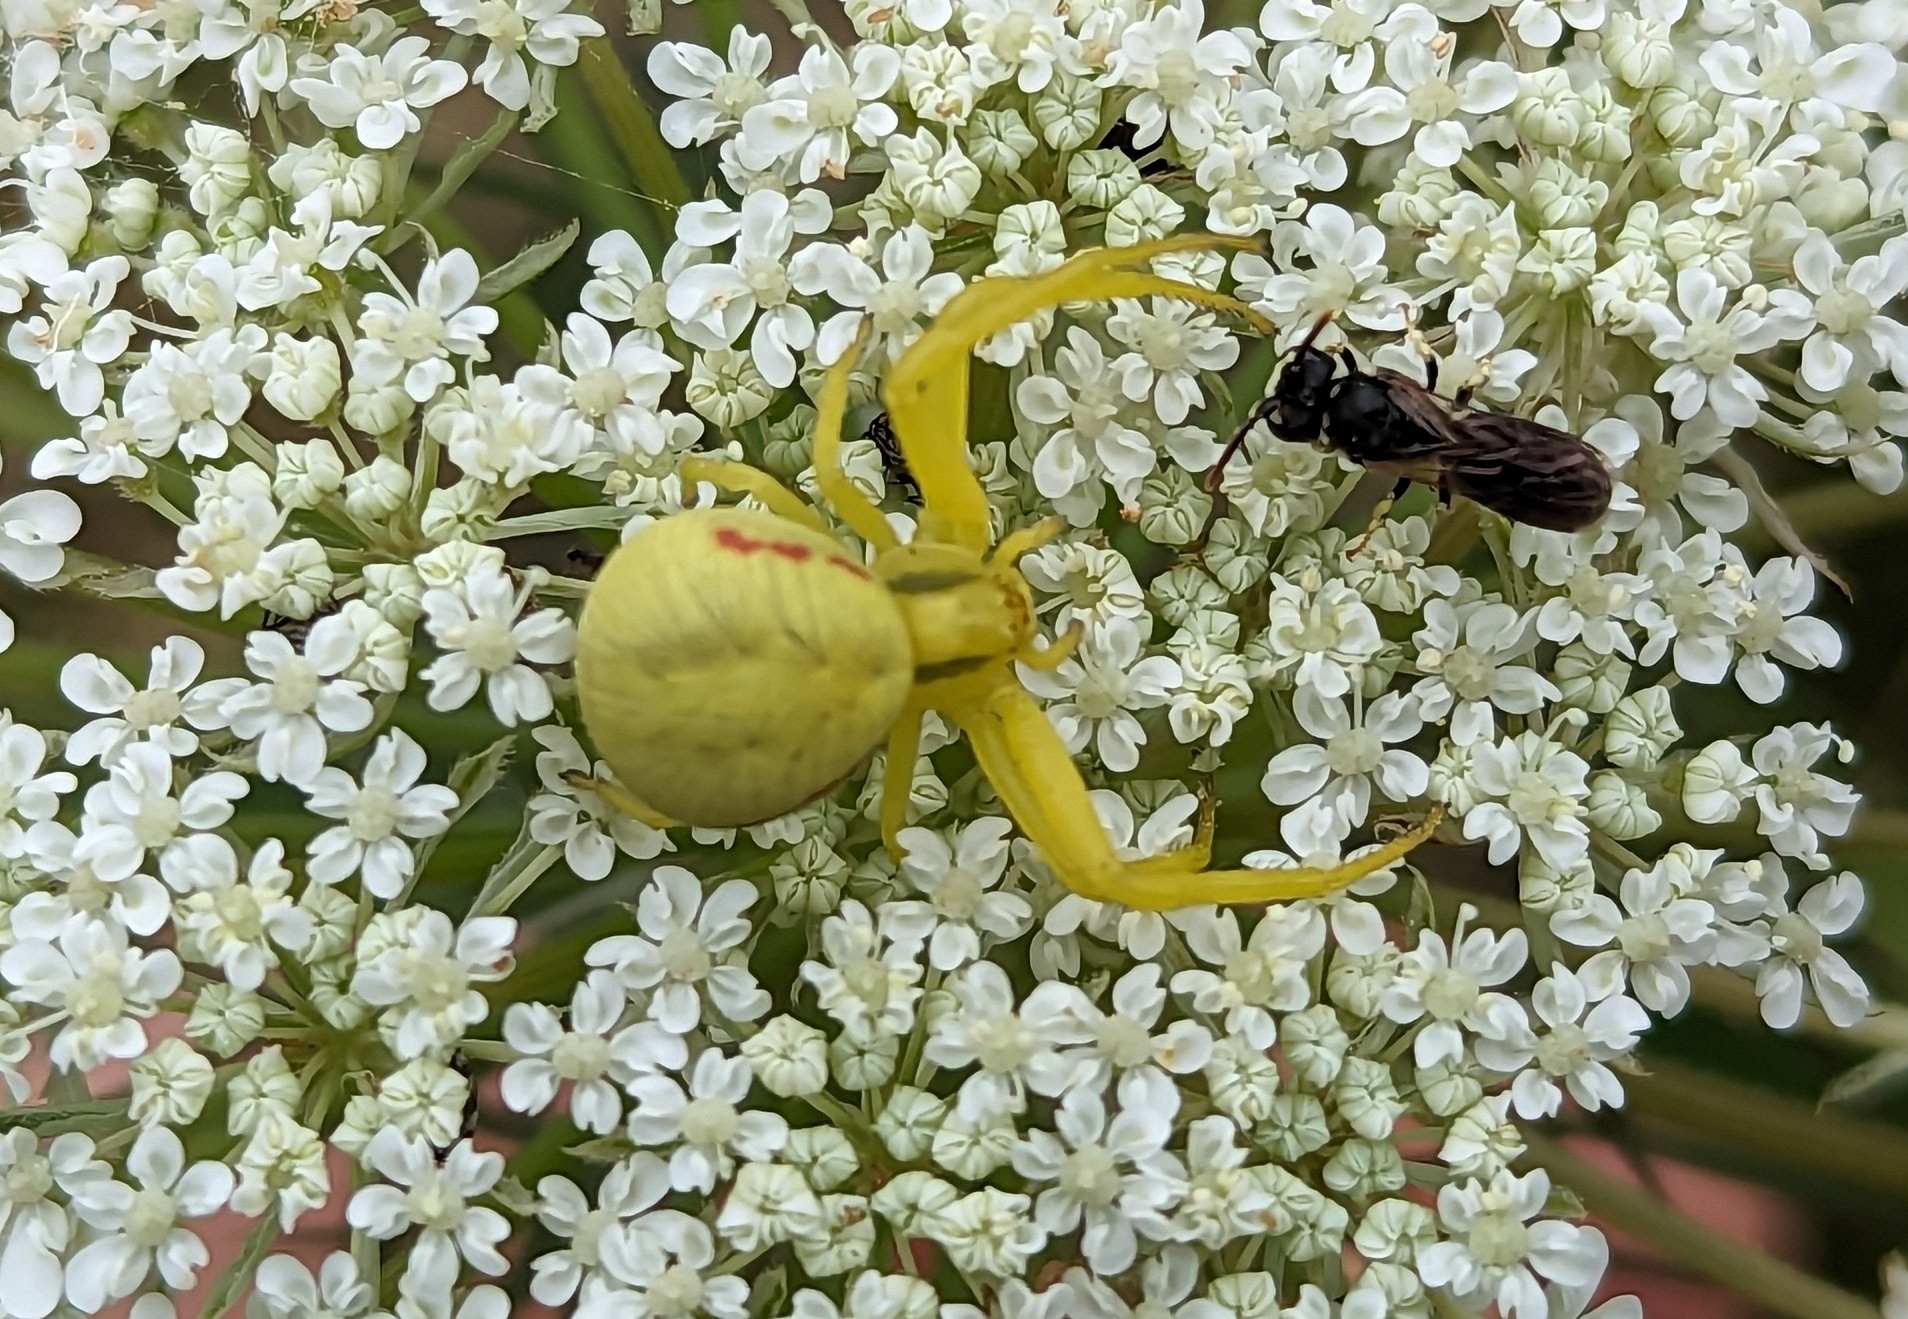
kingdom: Animalia
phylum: Arthropoda
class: Arachnida
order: Araneae
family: Thomisidae
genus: Misumena
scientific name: Misumena vatia
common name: Goldenrod crab spider
